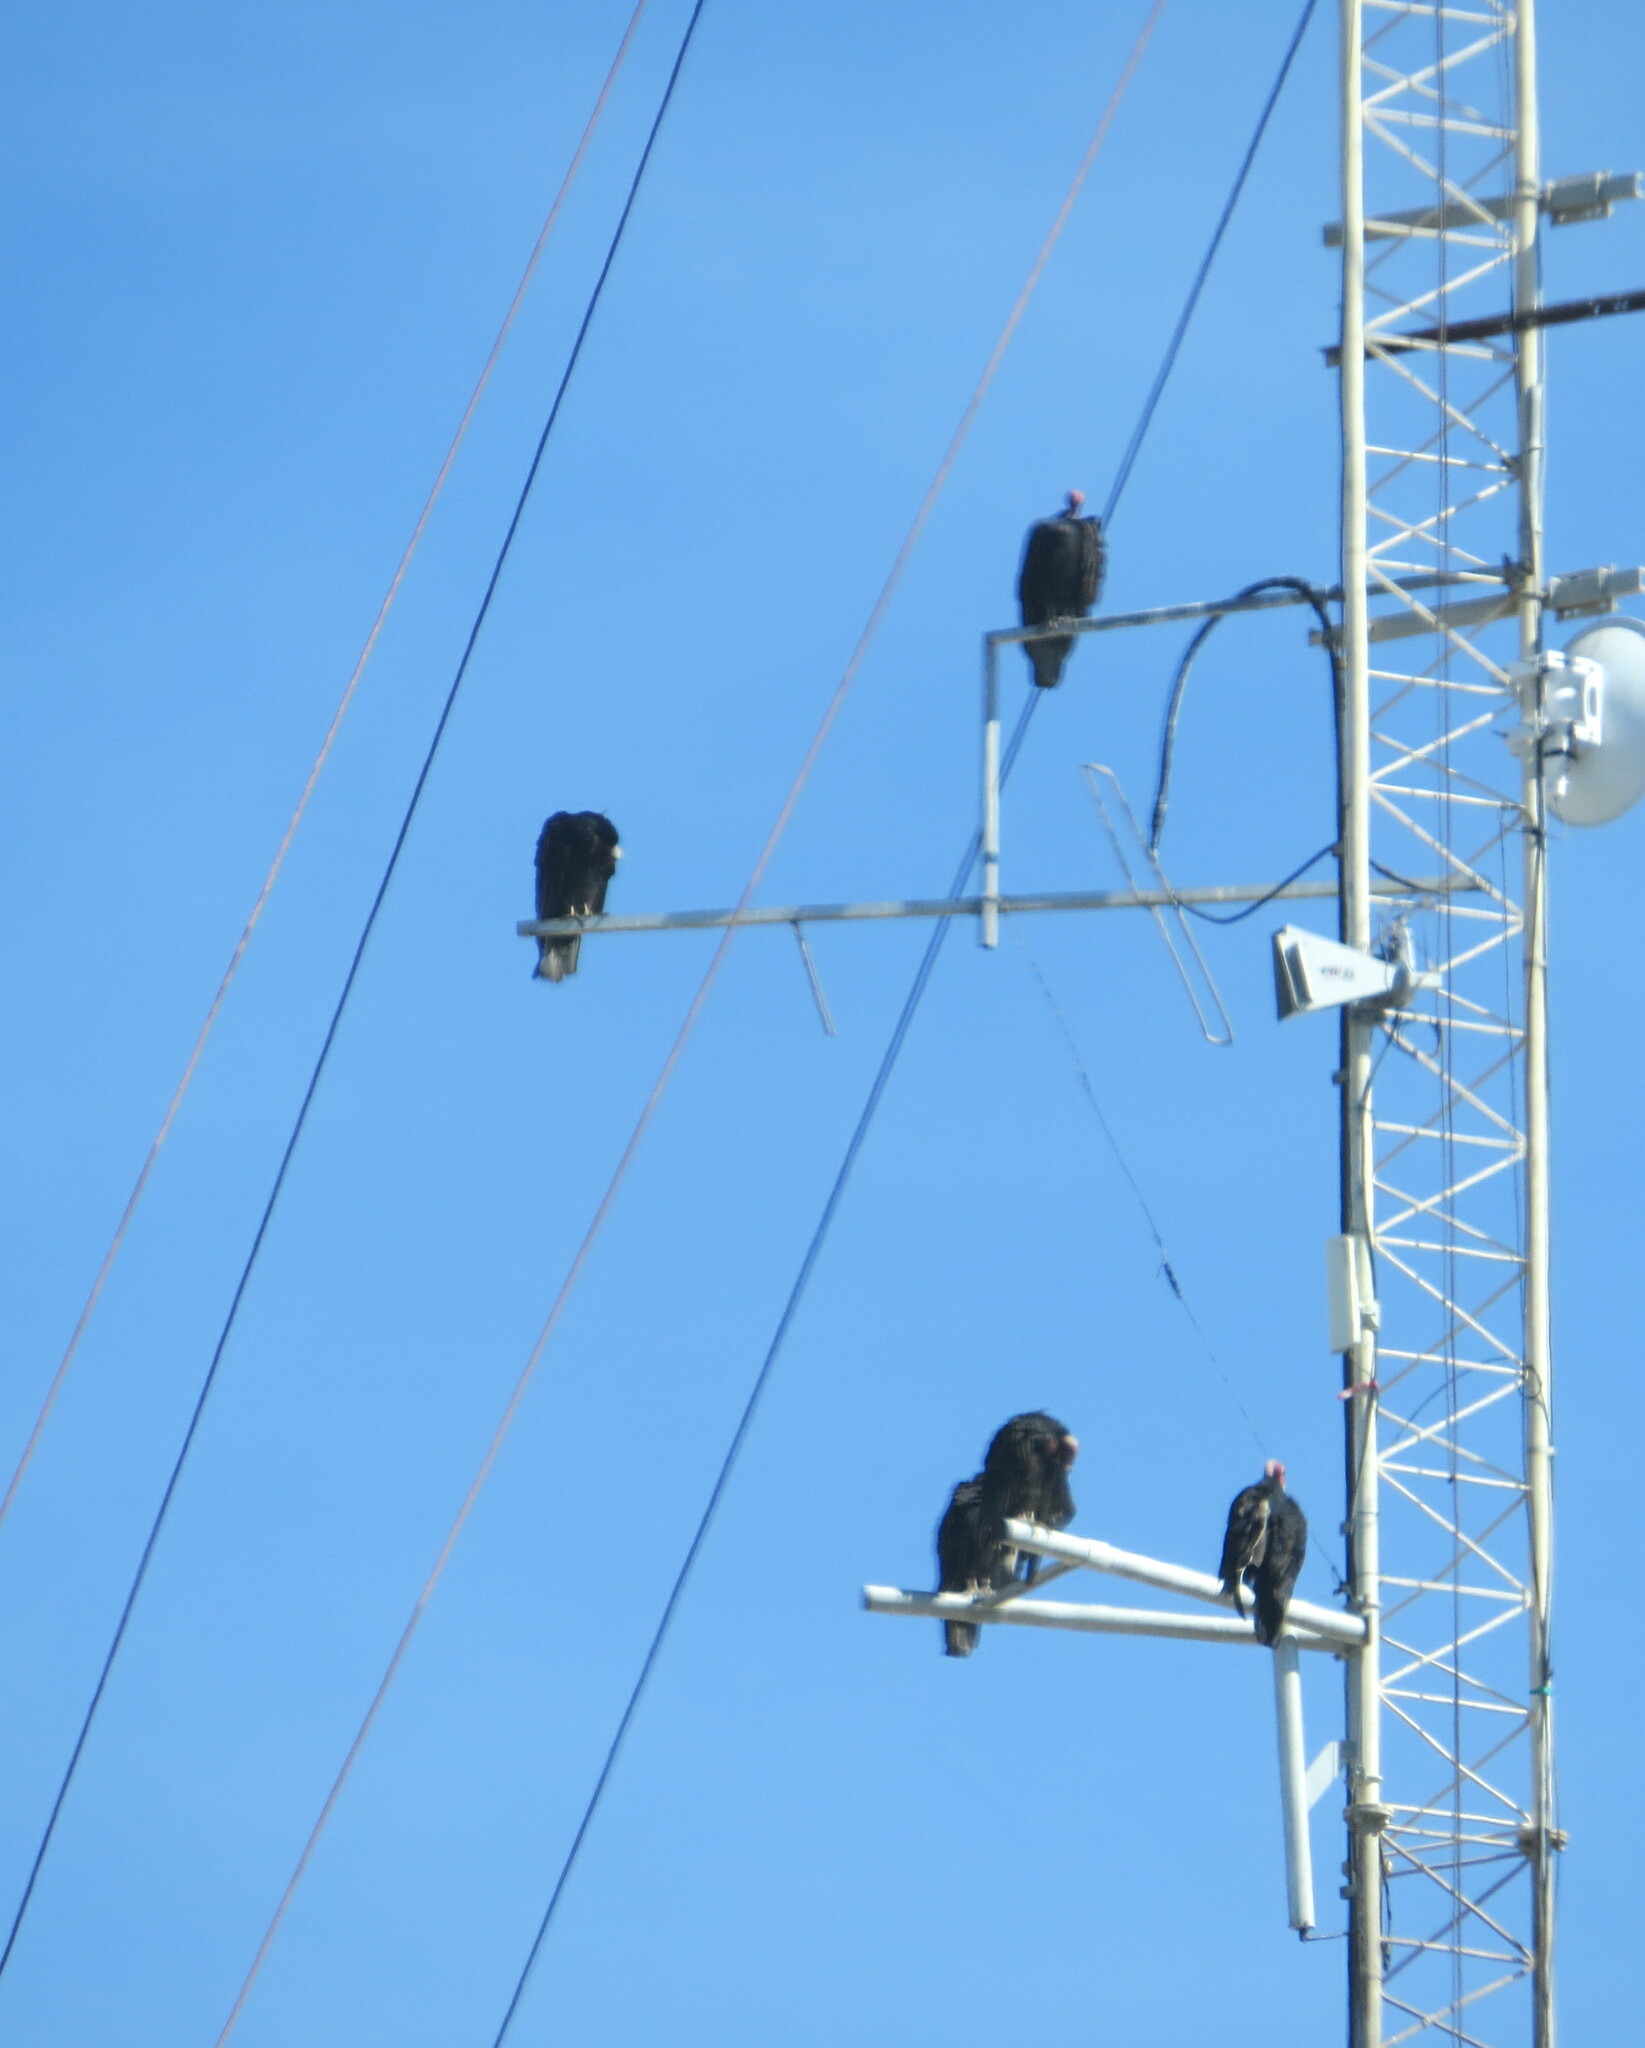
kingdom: Animalia
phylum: Chordata
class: Aves
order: Accipitriformes
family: Cathartidae
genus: Cathartes
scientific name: Cathartes aura
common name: Turkey vulture
